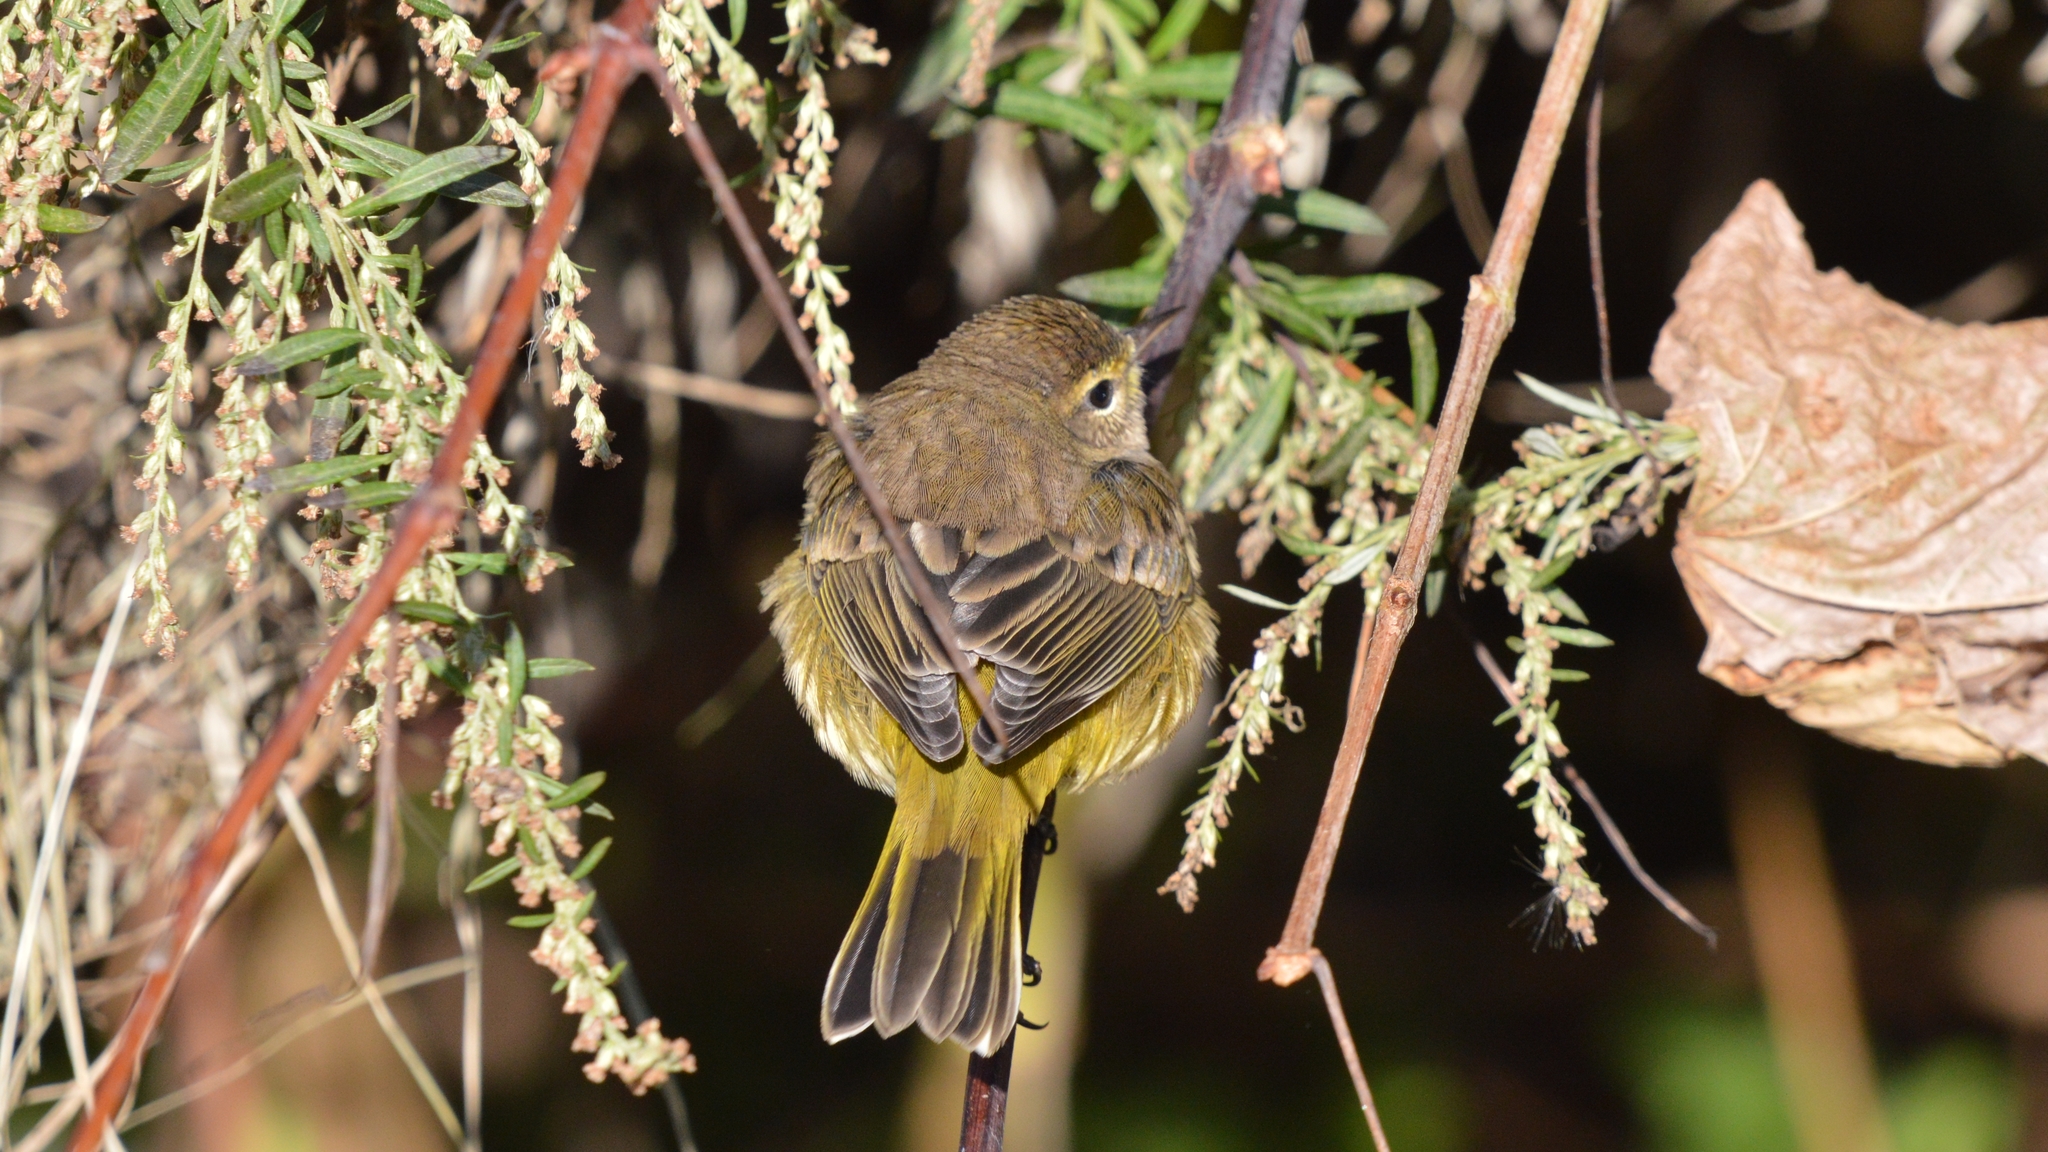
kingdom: Animalia
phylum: Chordata
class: Aves
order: Passeriformes
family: Parulidae
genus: Setophaga
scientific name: Setophaga palmarum
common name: Palm warbler
